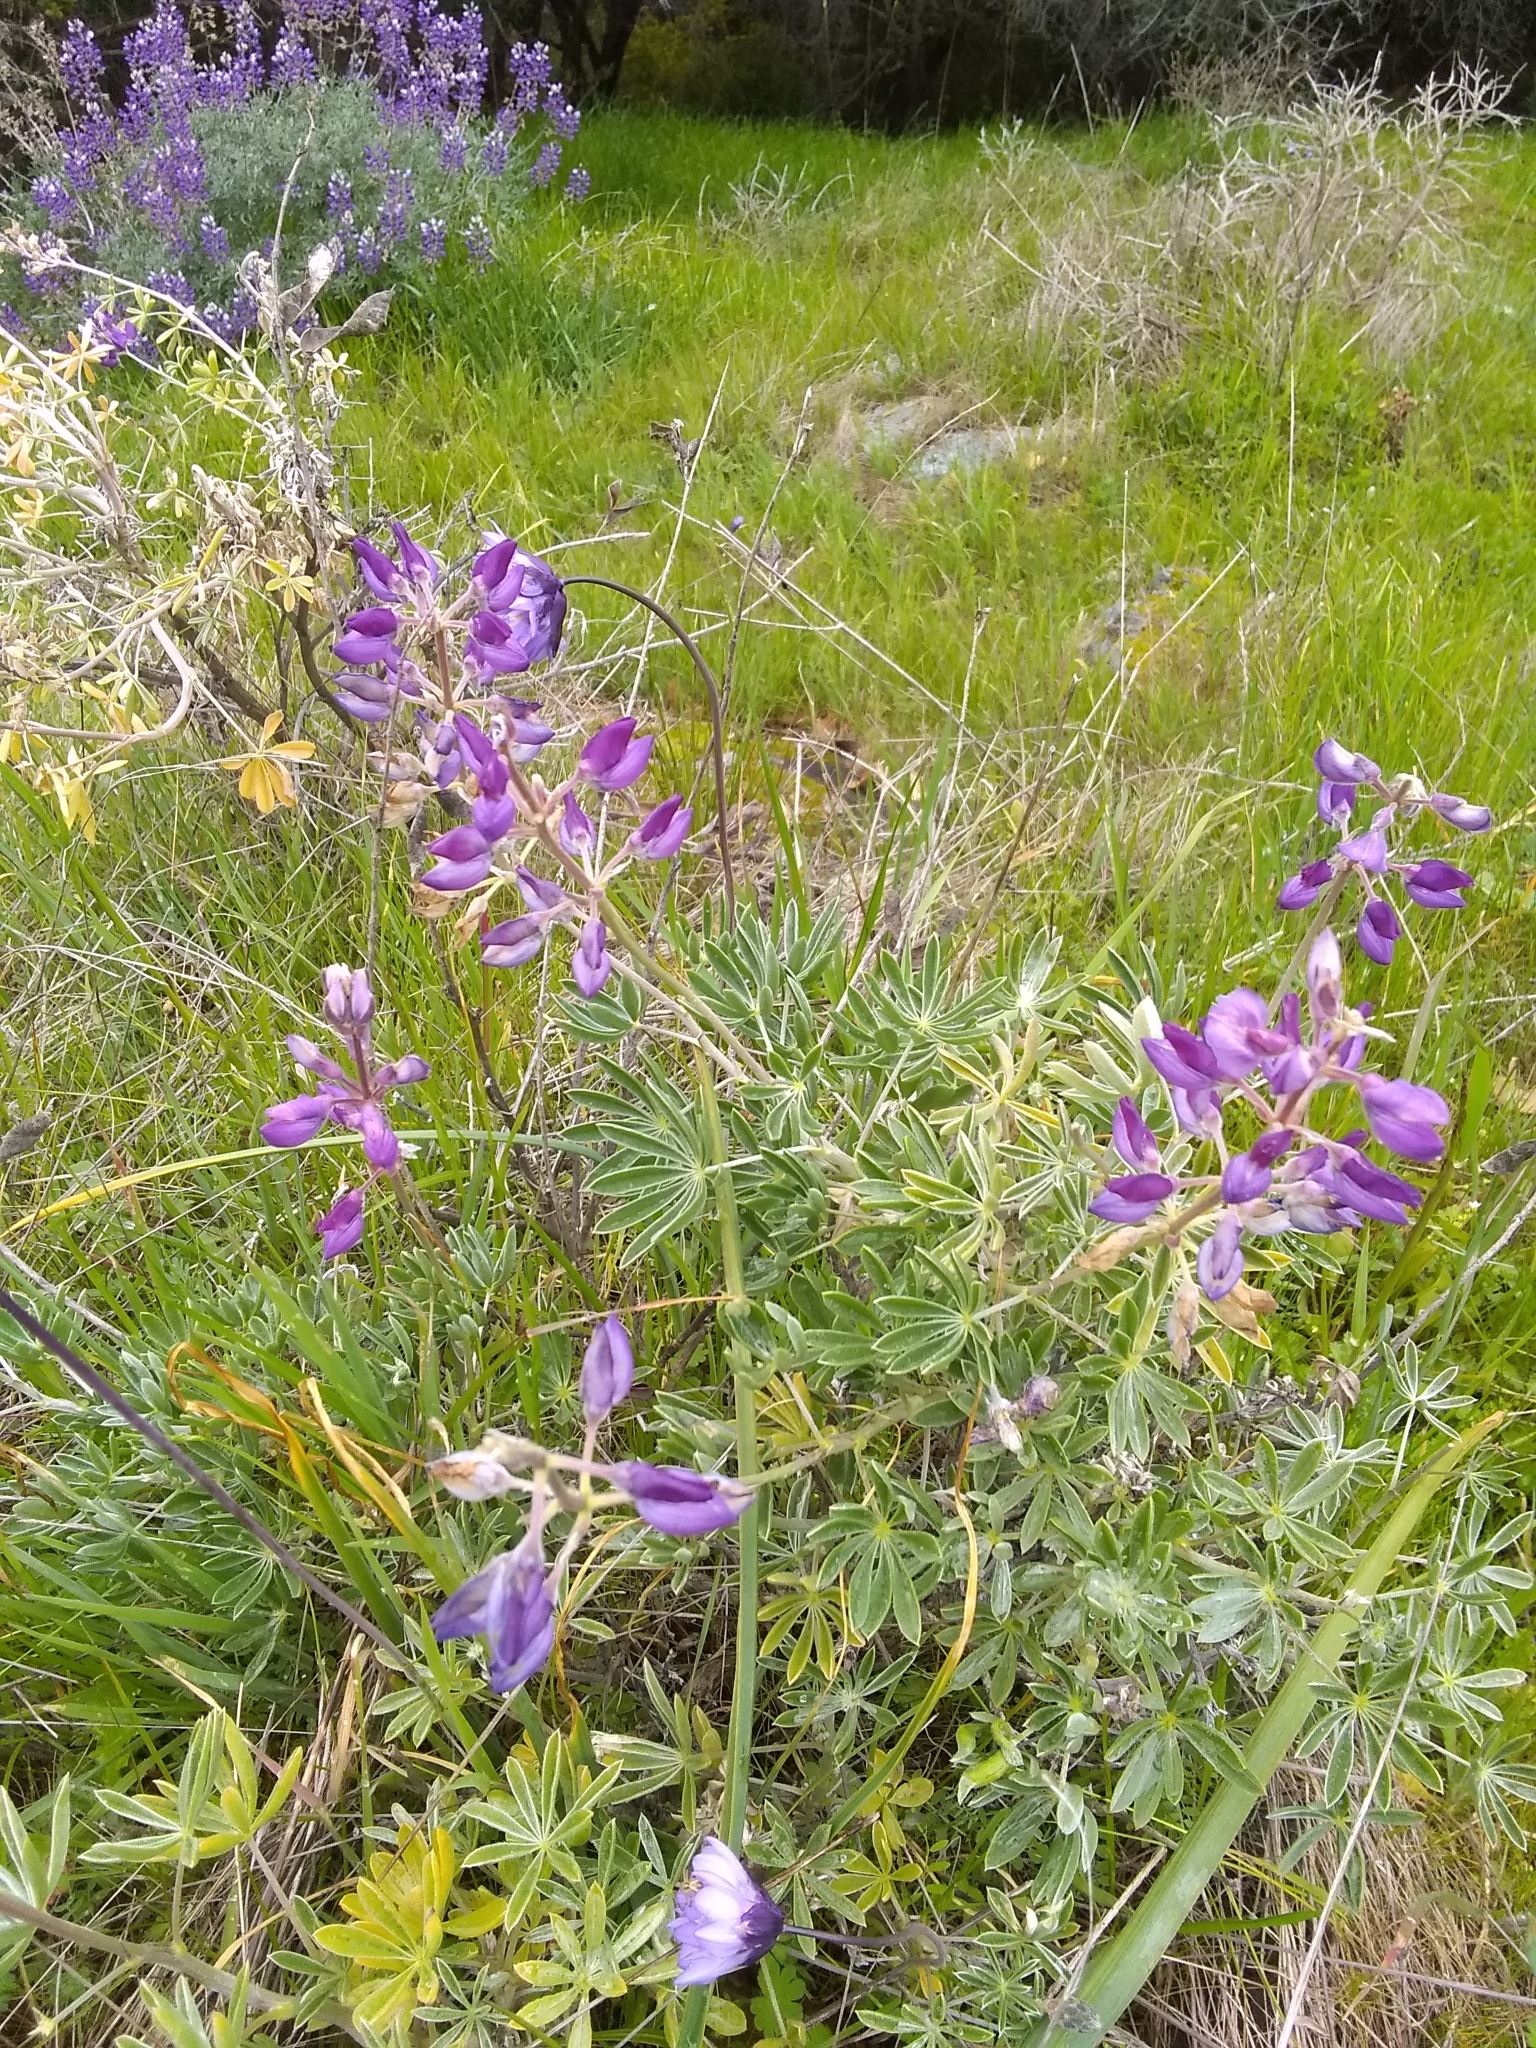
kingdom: Plantae
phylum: Tracheophyta
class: Magnoliopsida
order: Fabales
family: Fabaceae
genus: Lupinus
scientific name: Lupinus albifrons
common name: Foothill lupine
